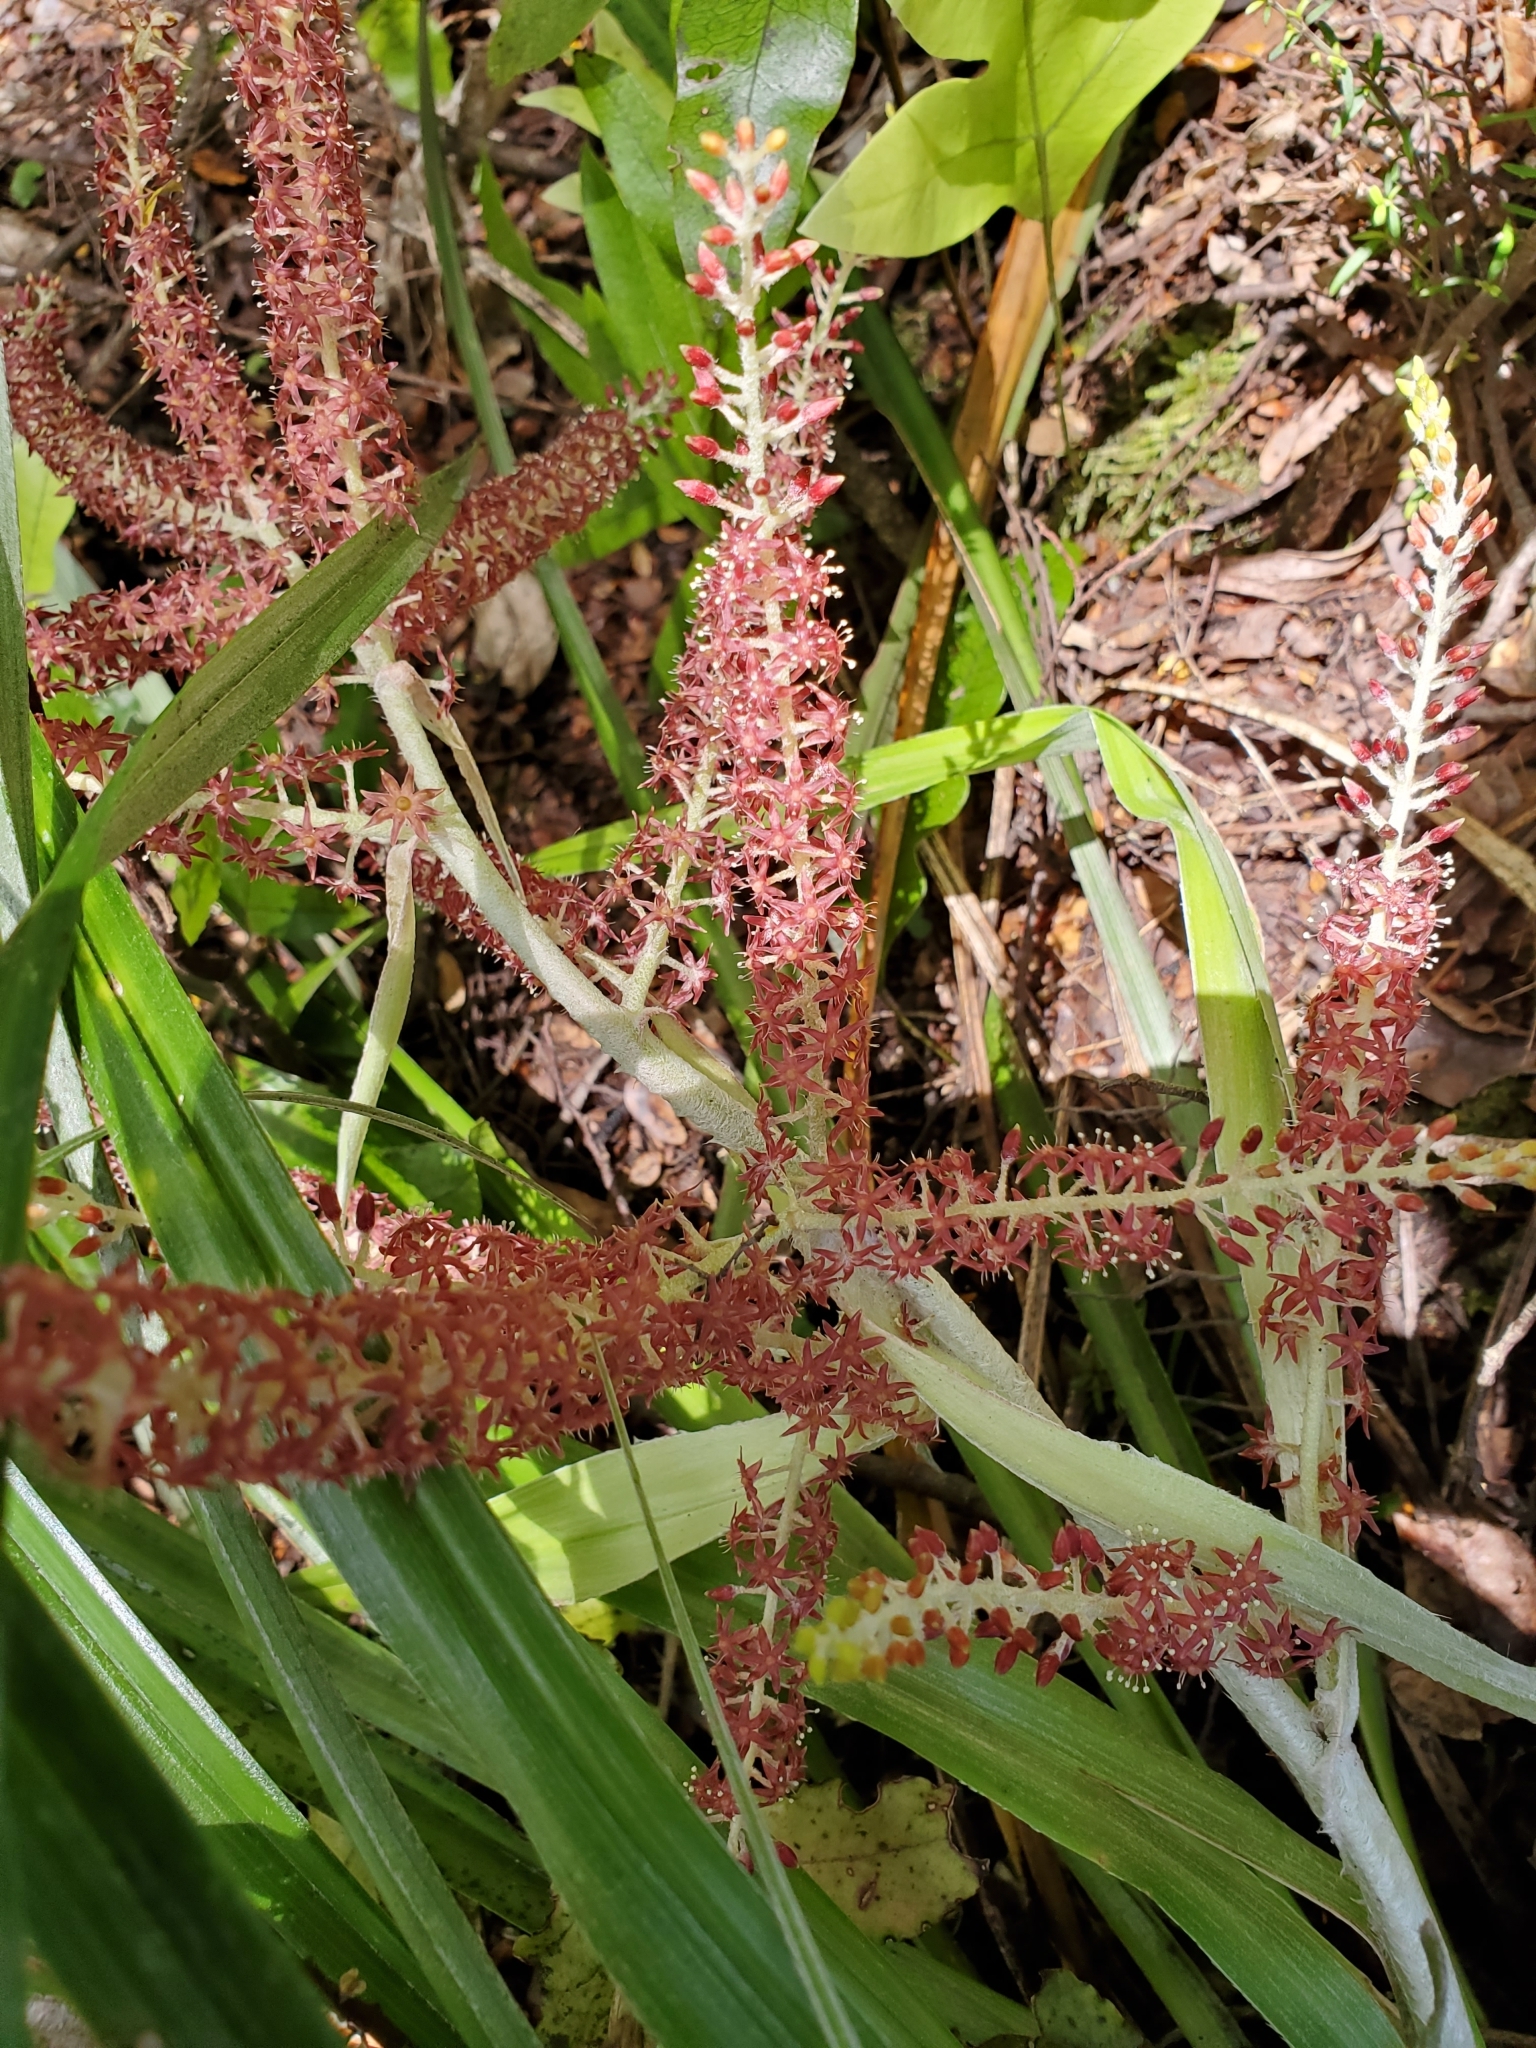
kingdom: Plantae
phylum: Tracheophyta
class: Liliopsida
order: Asparagales
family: Asteliaceae
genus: Astelia
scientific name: Astelia solandri
